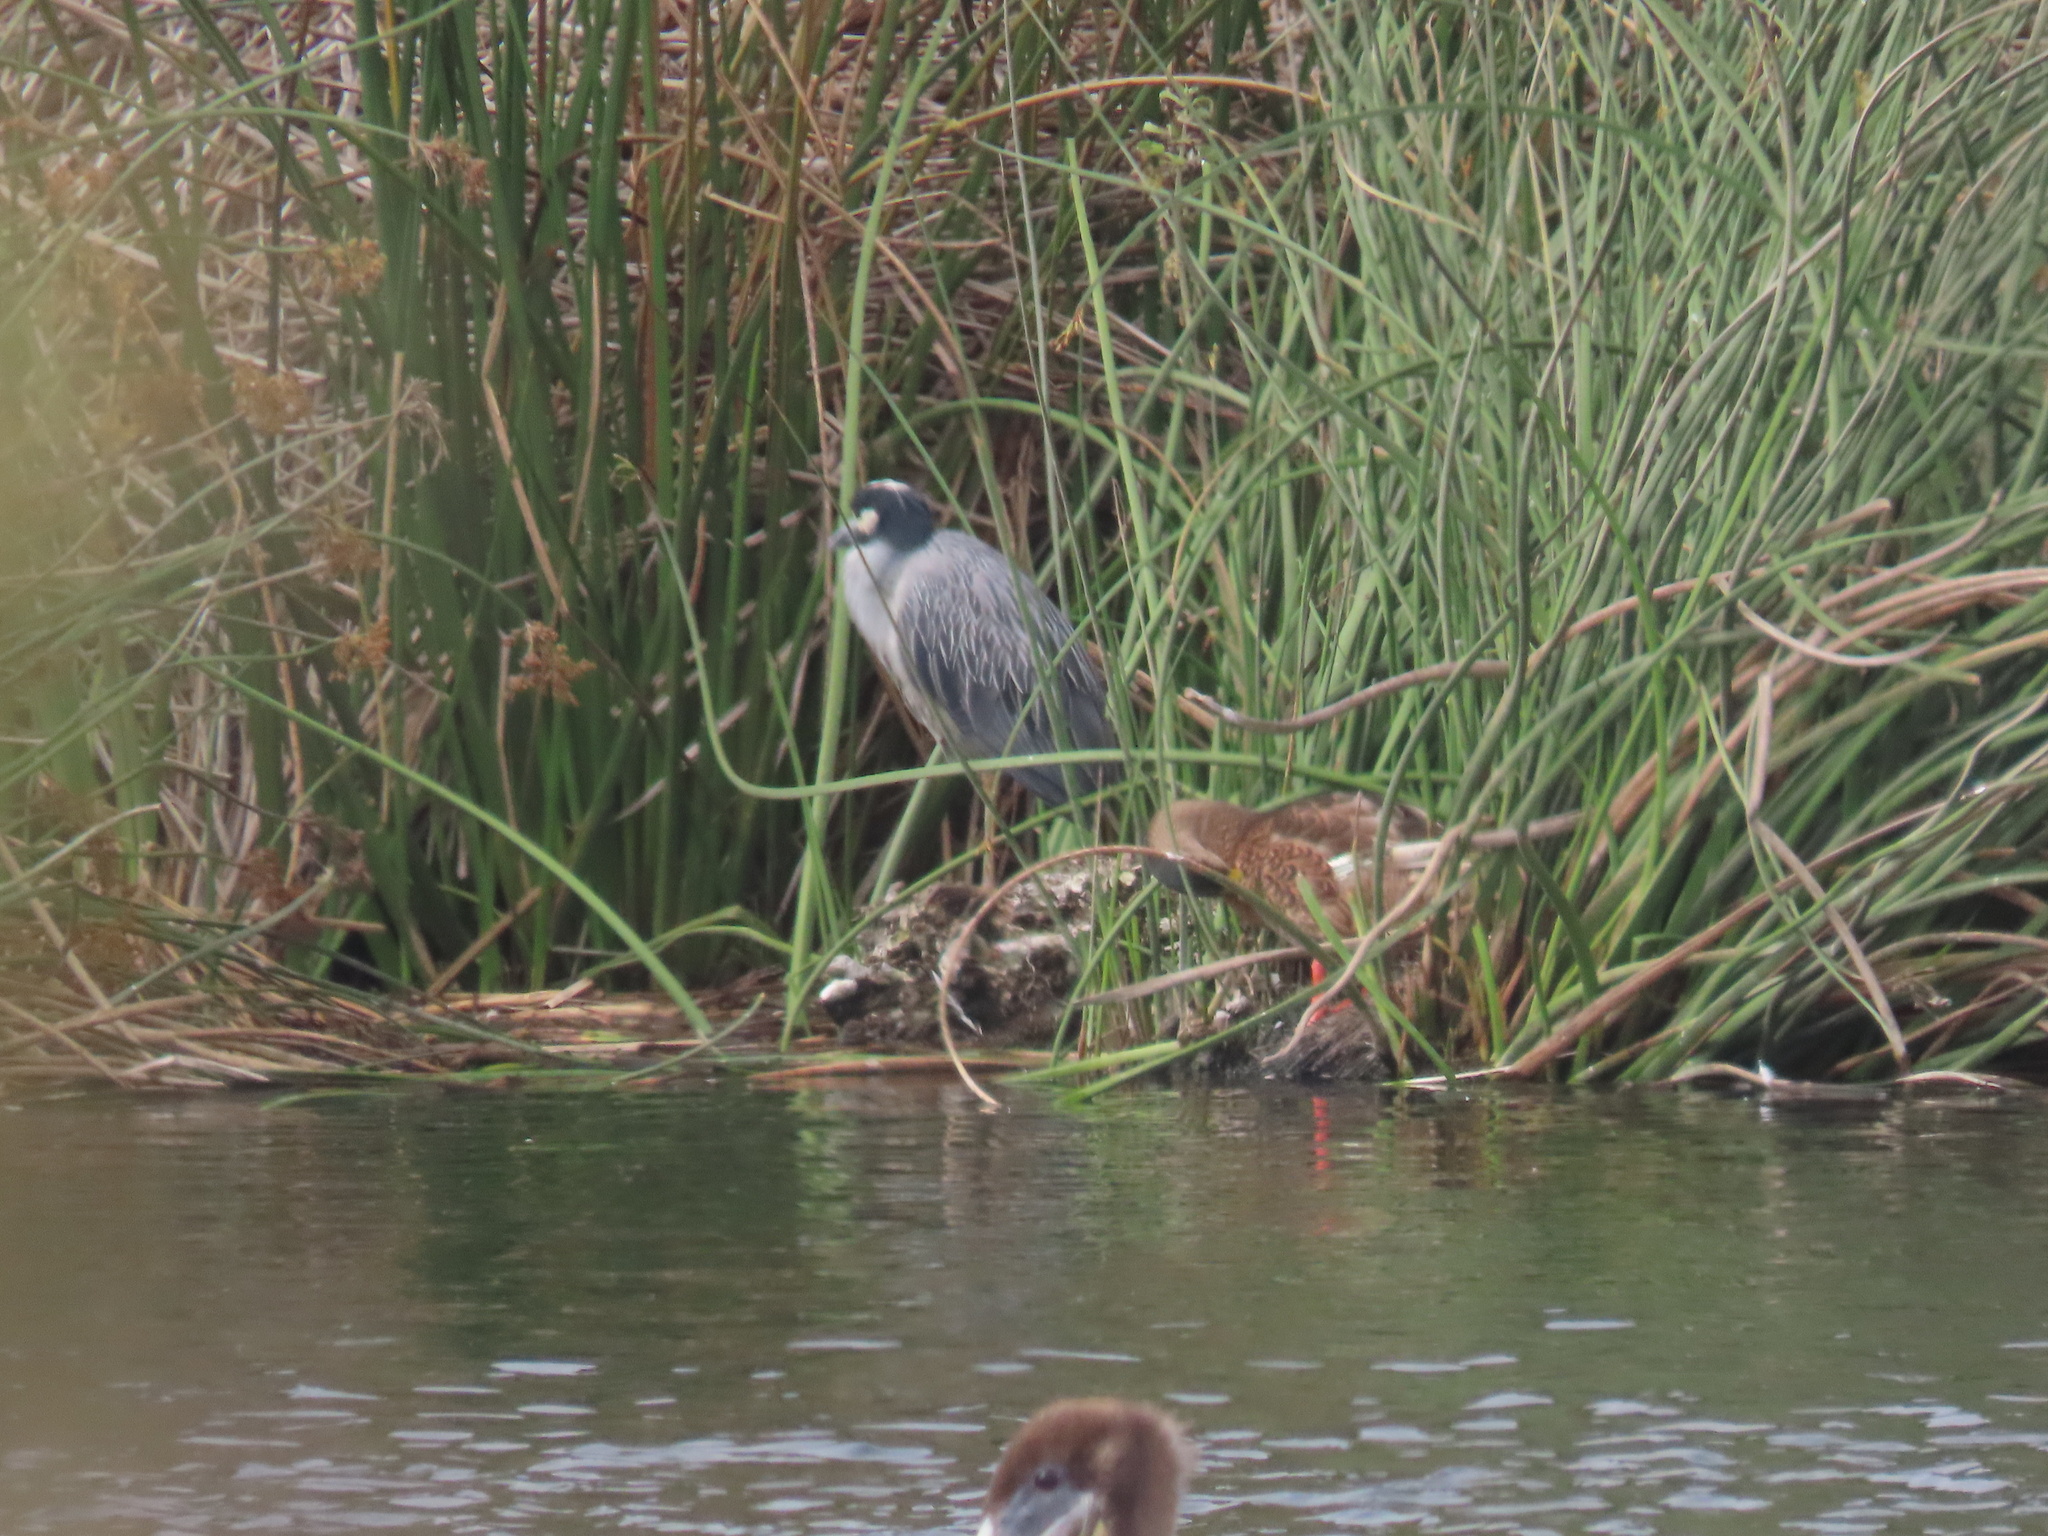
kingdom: Animalia
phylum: Chordata
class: Aves
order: Pelecaniformes
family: Ardeidae
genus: Nyctanassa
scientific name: Nyctanassa violacea
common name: Yellow-crowned night heron
